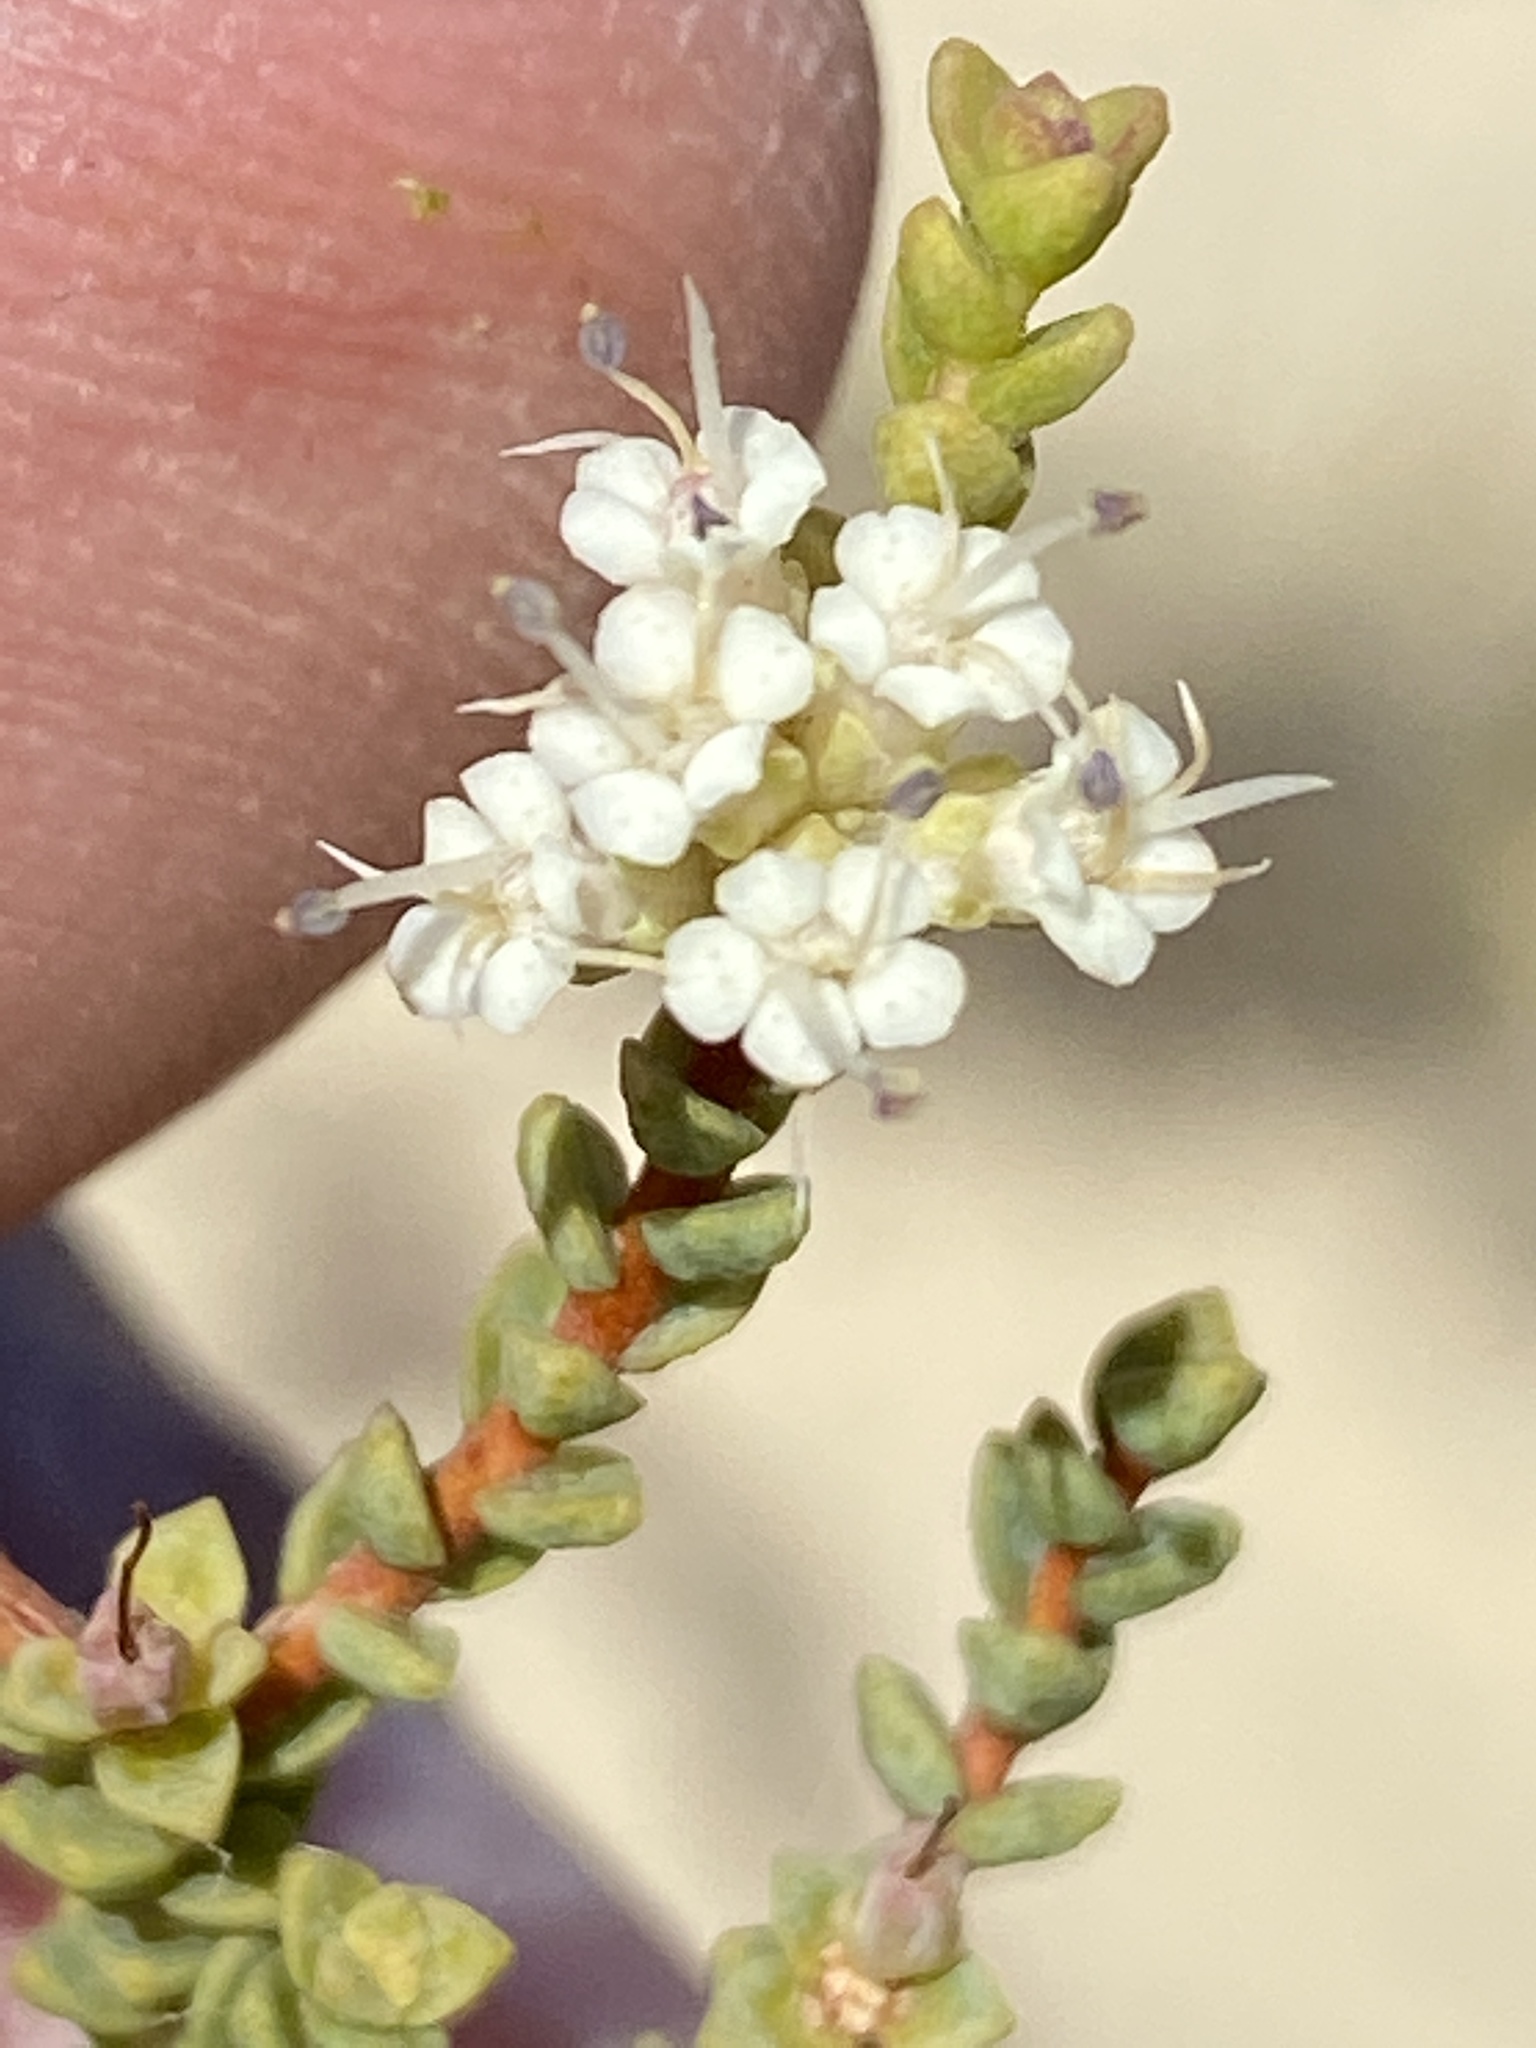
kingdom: Plantae
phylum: Tracheophyta
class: Magnoliopsida
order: Sapindales
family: Rutaceae
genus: Macrostylis
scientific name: Macrostylis crassifolia
